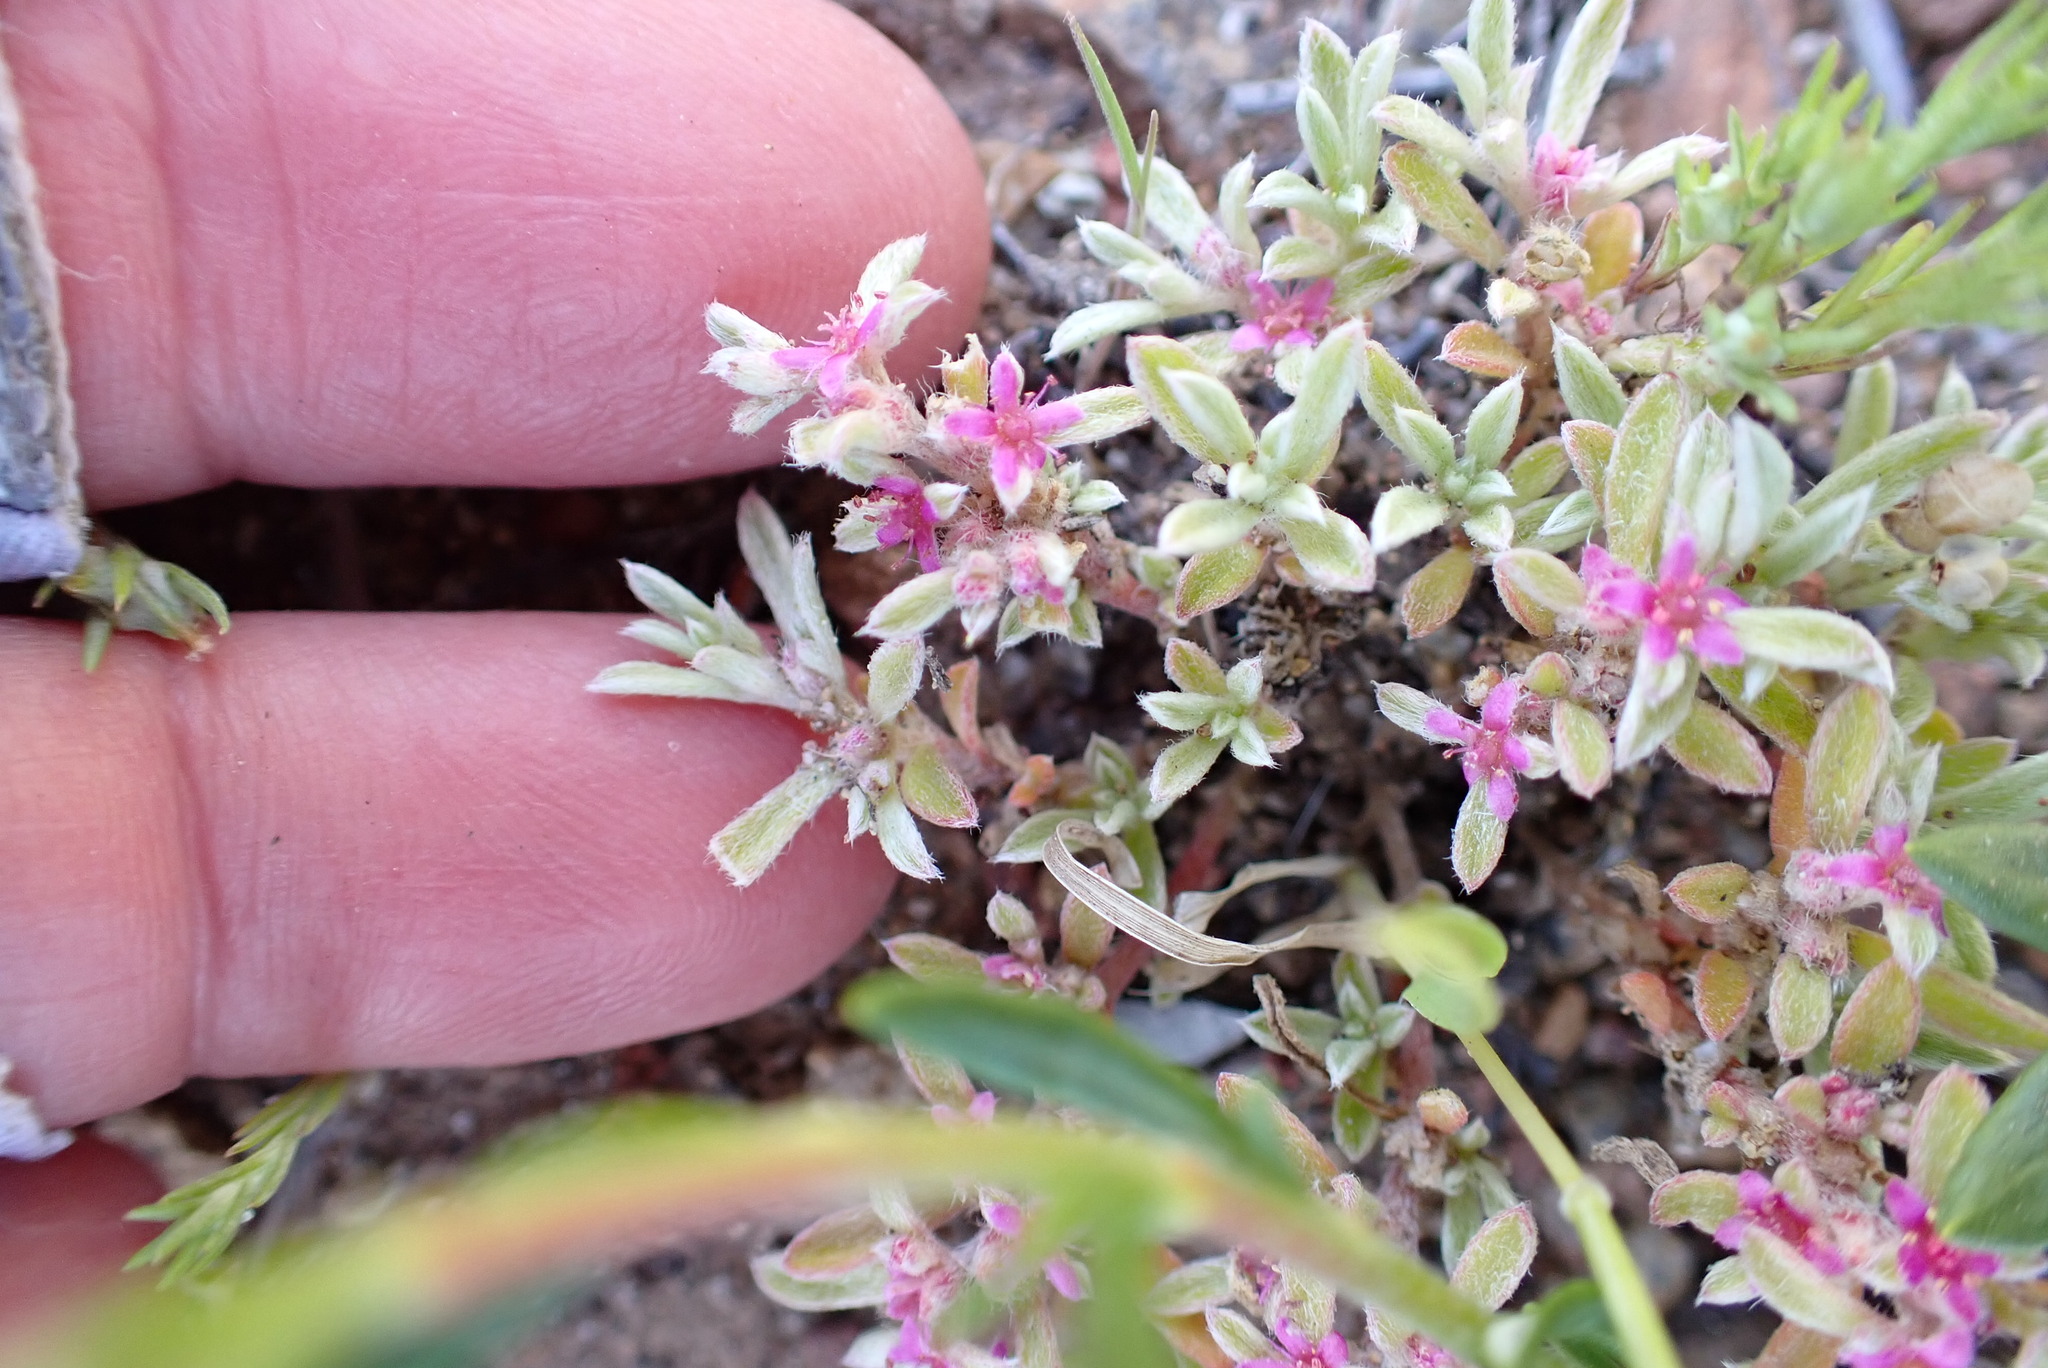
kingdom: Plantae
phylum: Tracheophyta
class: Magnoliopsida
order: Caryophyllales
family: Aizoaceae
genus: Aizoon
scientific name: Aizoon pubescens
